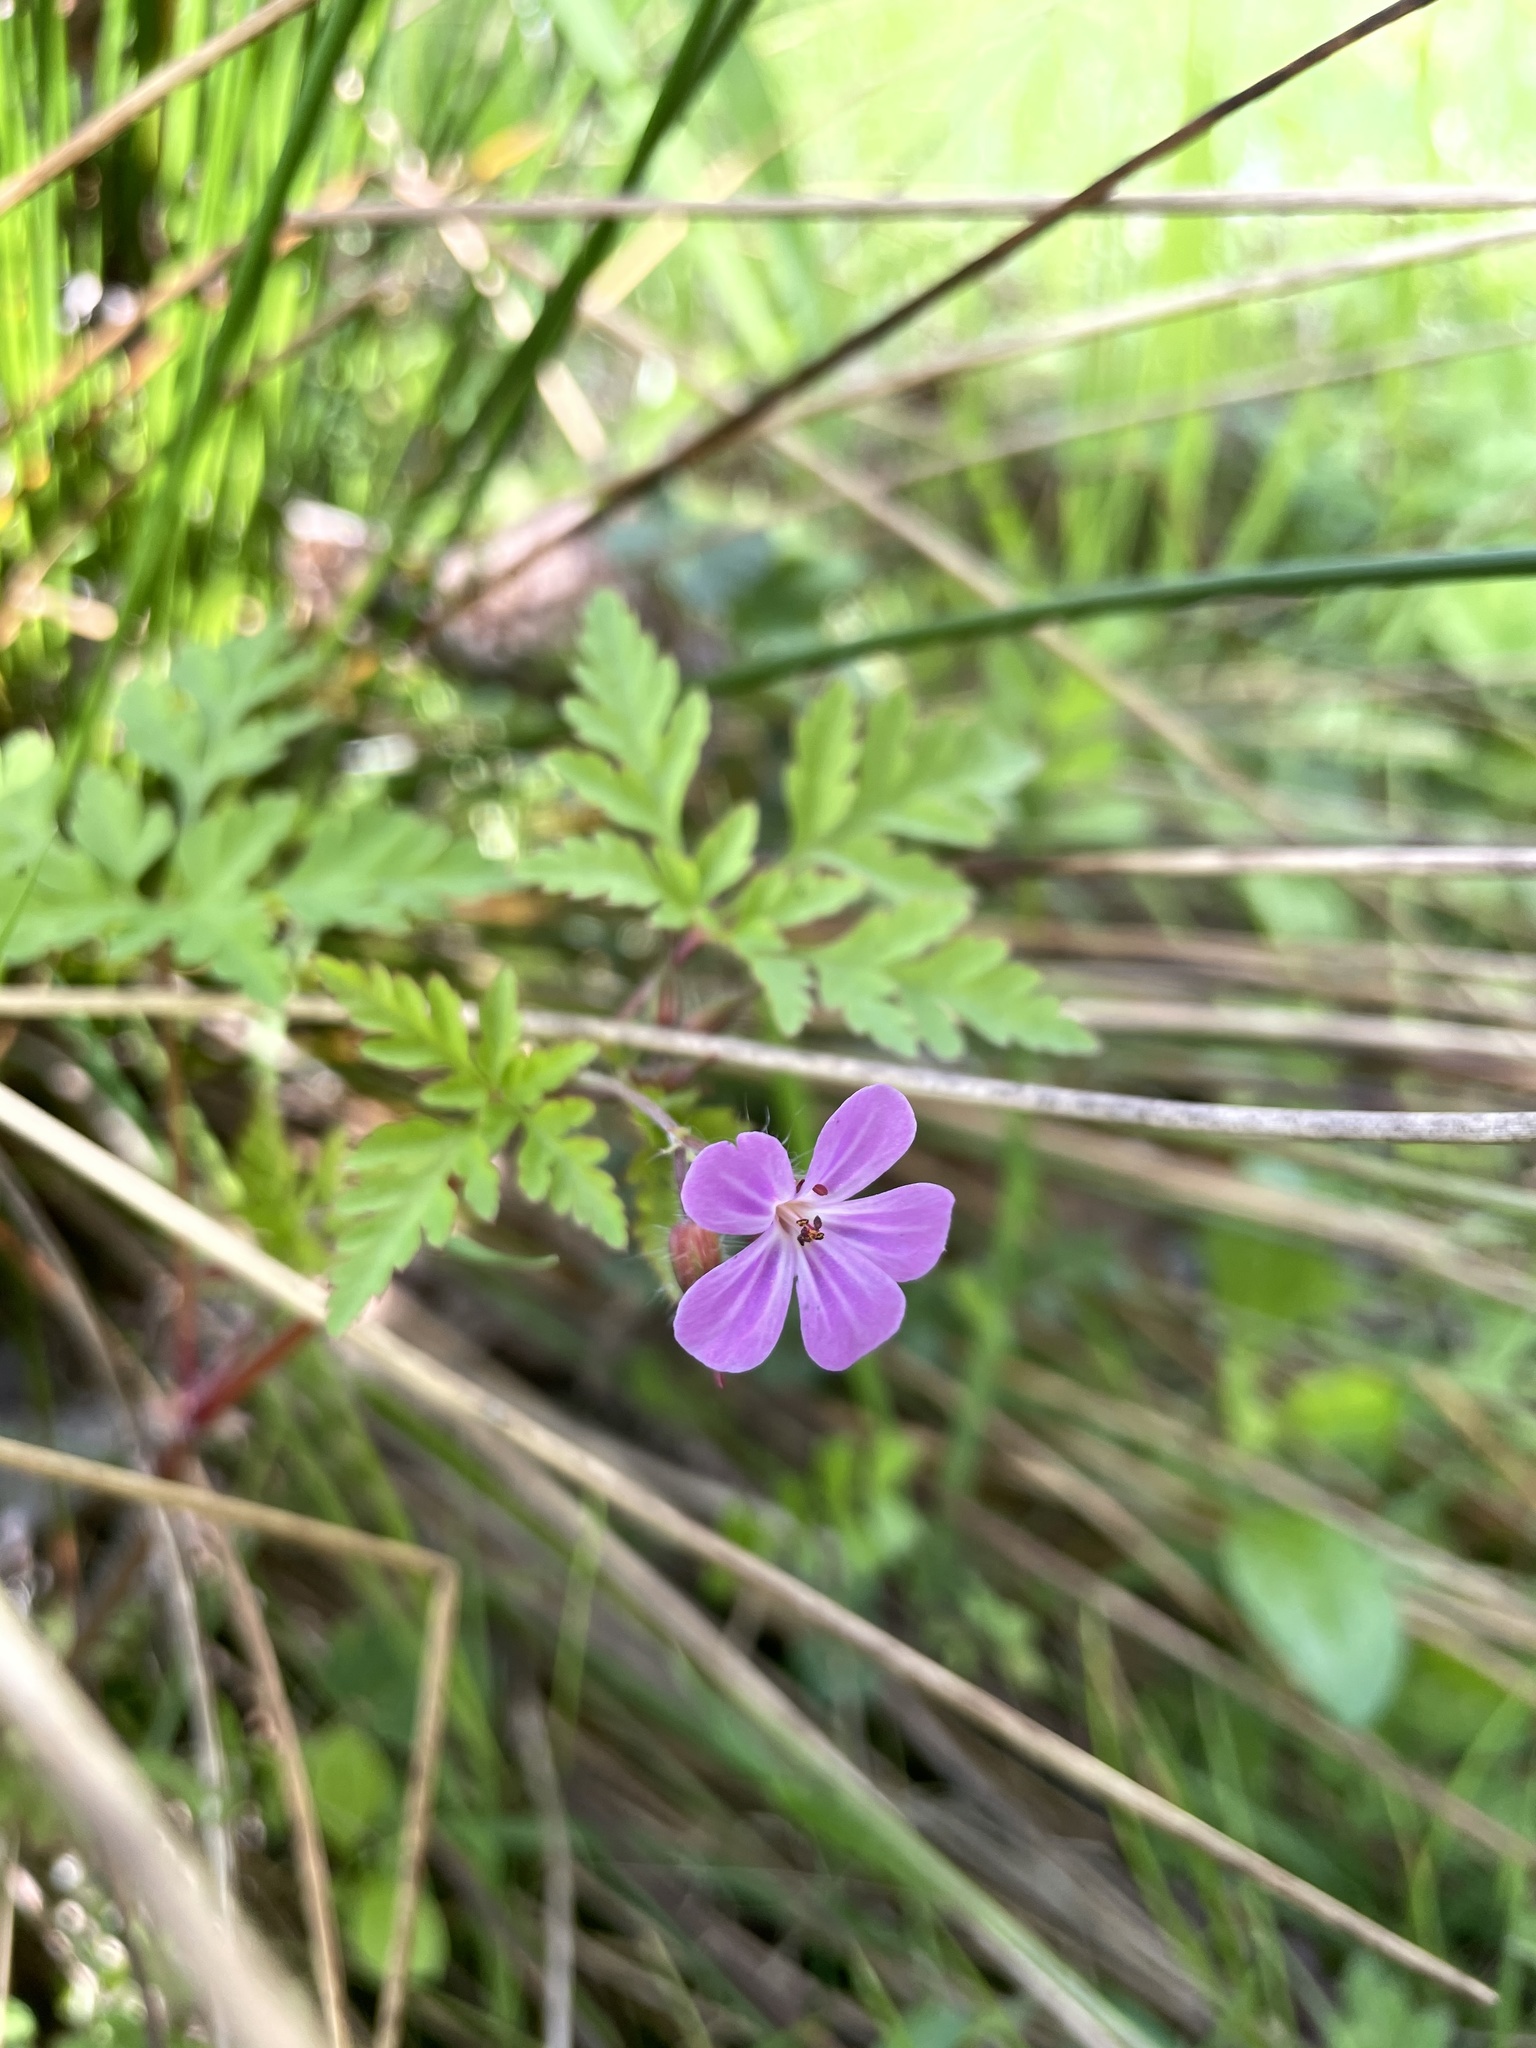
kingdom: Plantae
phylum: Tracheophyta
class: Magnoliopsida
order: Geraniales
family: Geraniaceae
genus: Geranium
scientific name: Geranium robertianum
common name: Herb-robert
